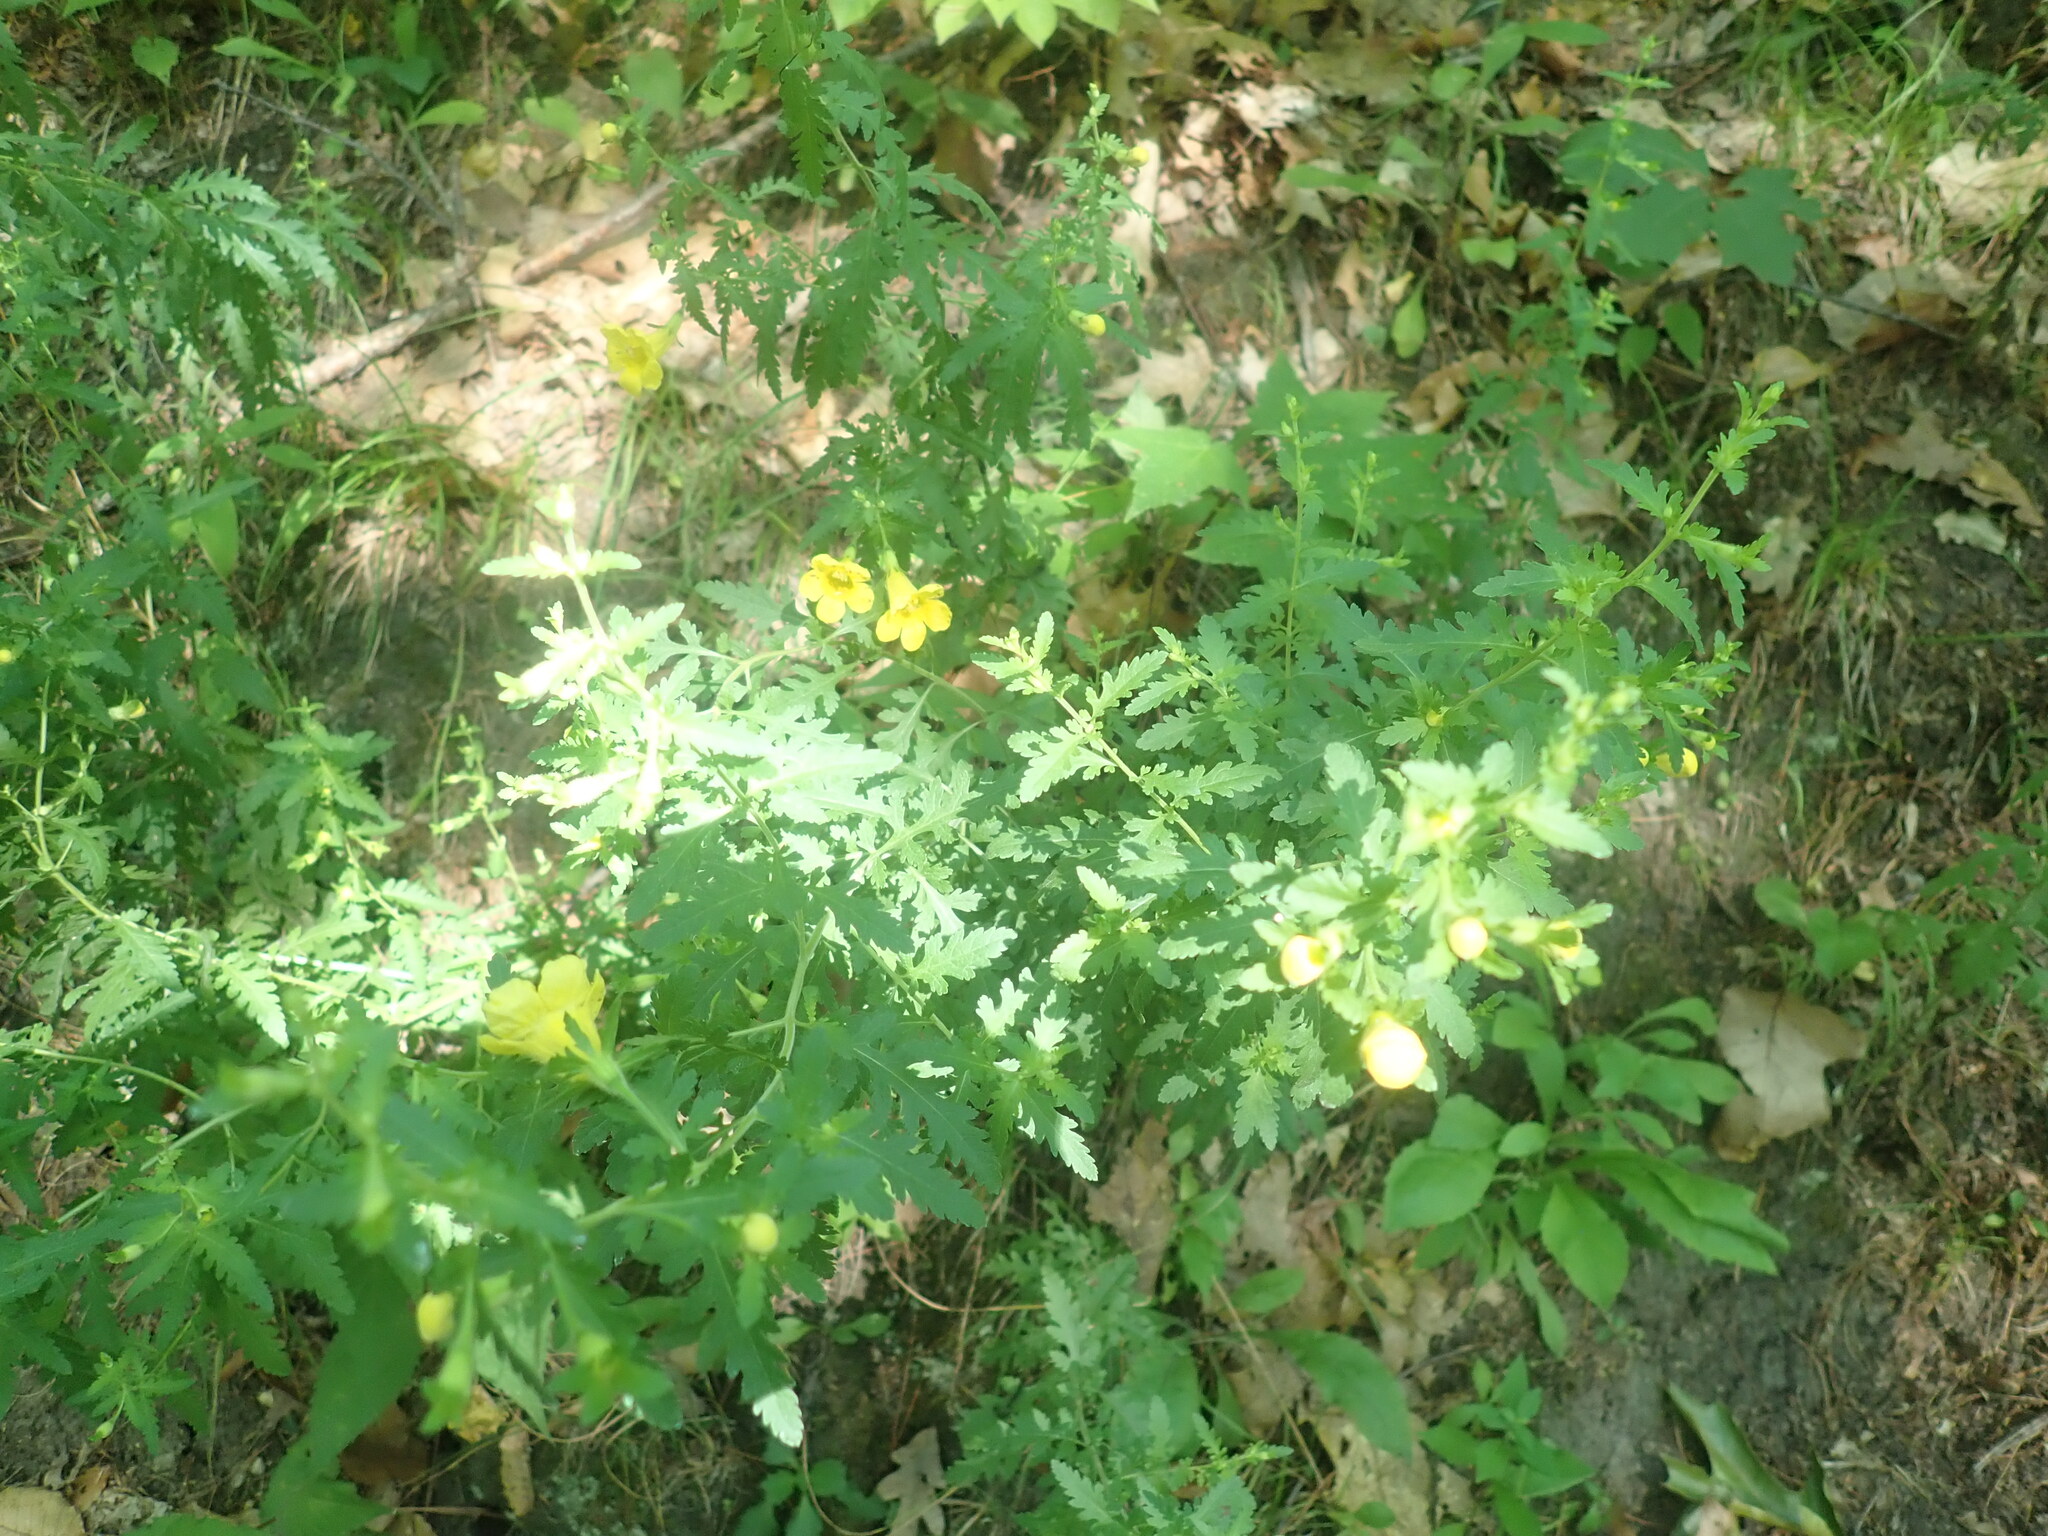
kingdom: Plantae
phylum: Tracheophyta
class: Magnoliopsida
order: Lamiales
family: Orobanchaceae
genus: Aureolaria
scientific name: Aureolaria pedicularia
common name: Annual false foxglove
